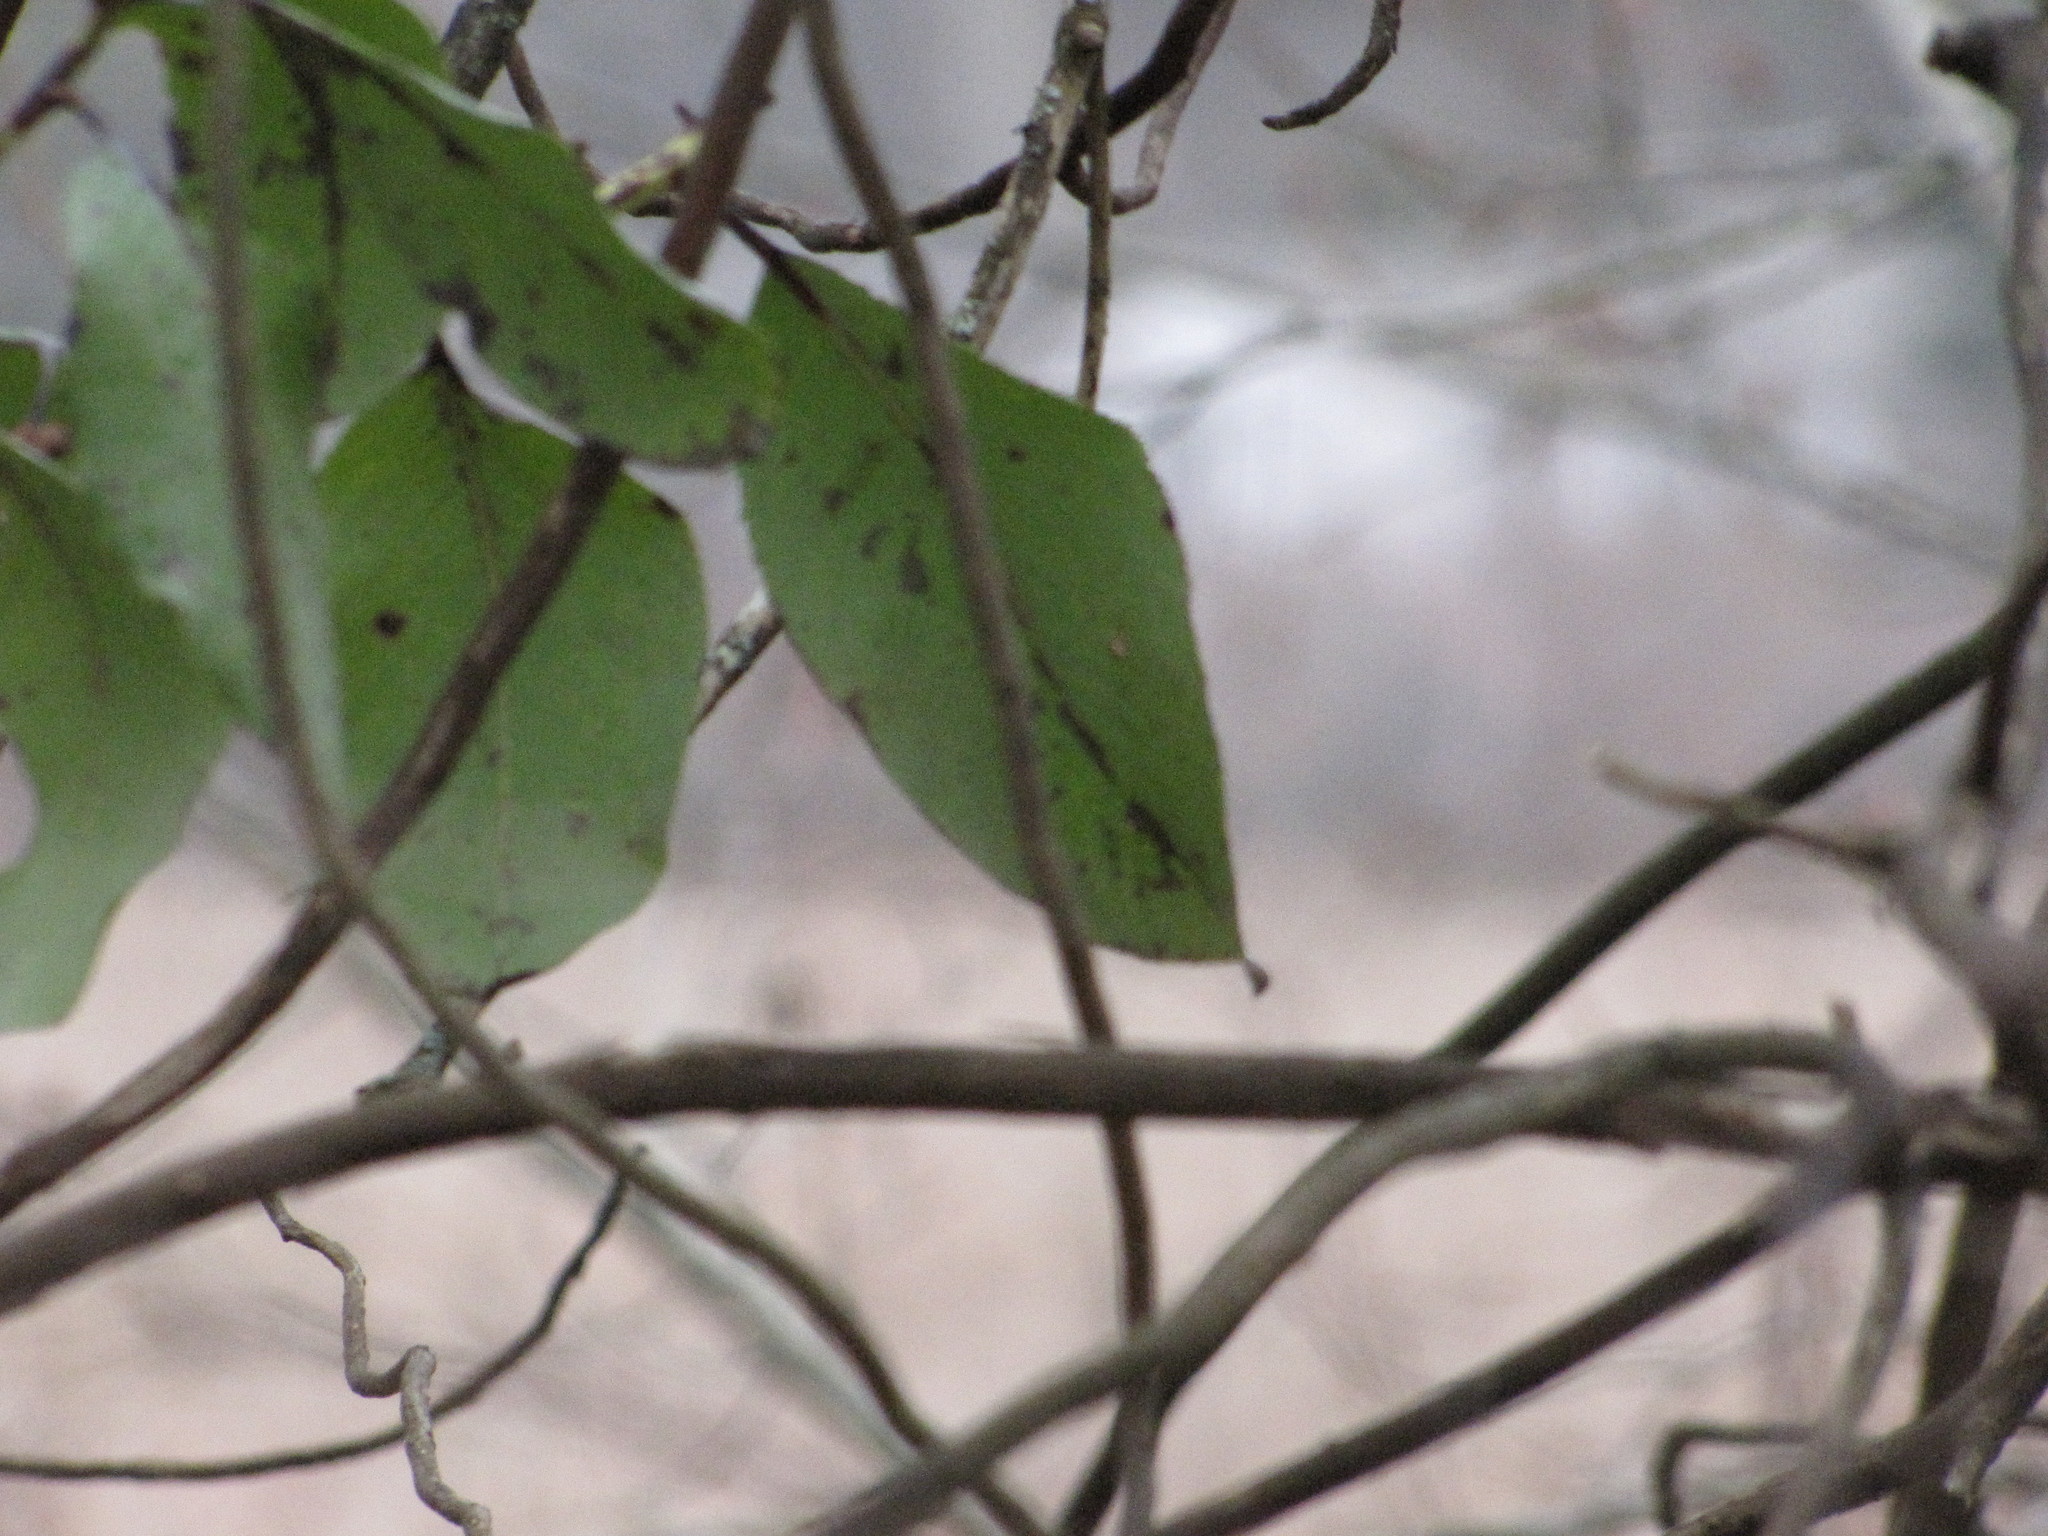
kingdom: Plantae
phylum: Tracheophyta
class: Magnoliopsida
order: Ericales
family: Ericaceae
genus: Arbutus
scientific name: Arbutus menziesii
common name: Pacific madrone
